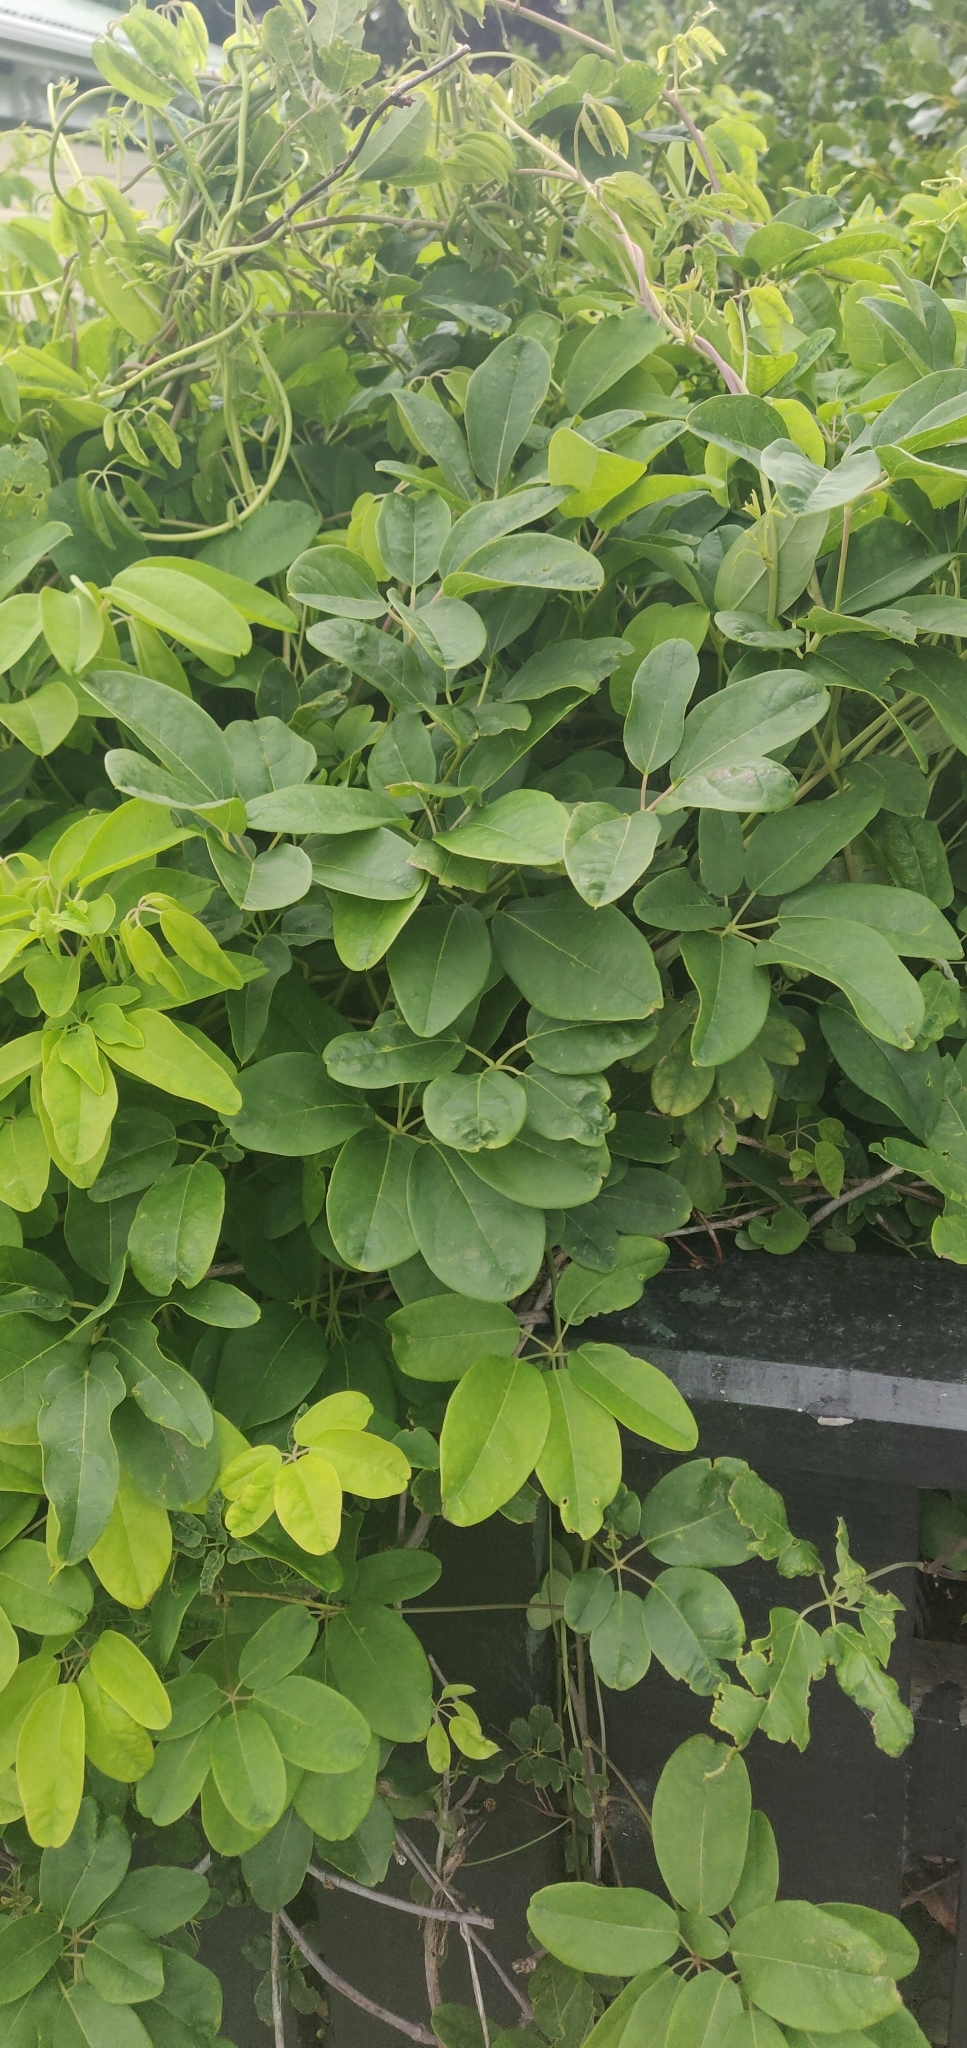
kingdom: Plantae
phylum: Tracheophyta
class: Magnoliopsida
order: Ranunculales
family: Lardizabalaceae
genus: Akebia
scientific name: Akebia quinata
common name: Five-leaf akebia
